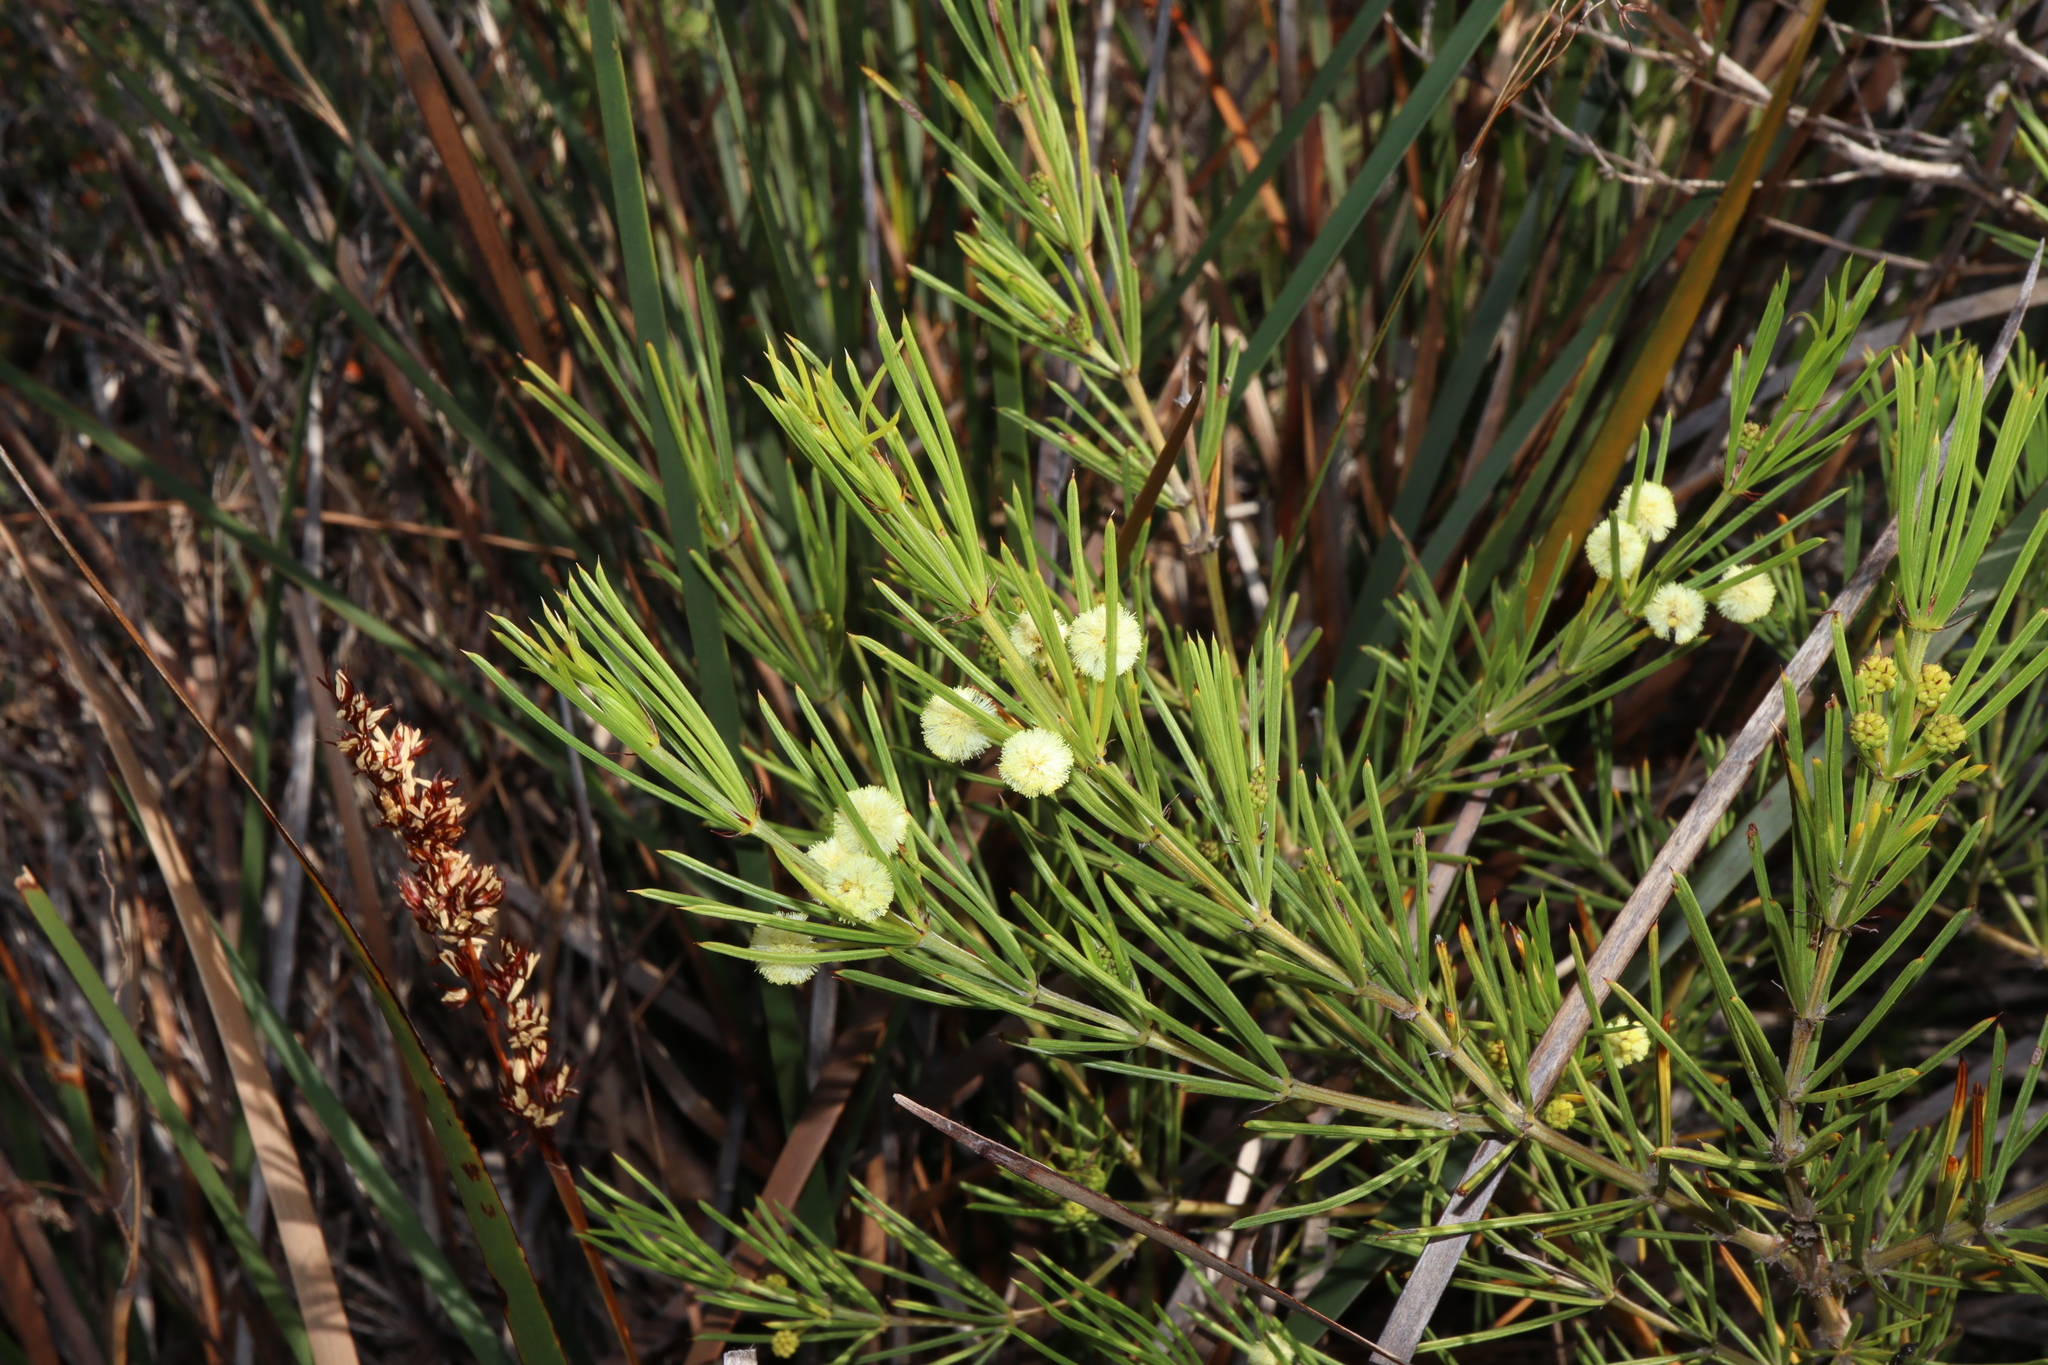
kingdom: Plantae
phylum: Tracheophyta
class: Magnoliopsida
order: Fabales
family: Fabaceae
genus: Acacia
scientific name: Acacia cedroides
